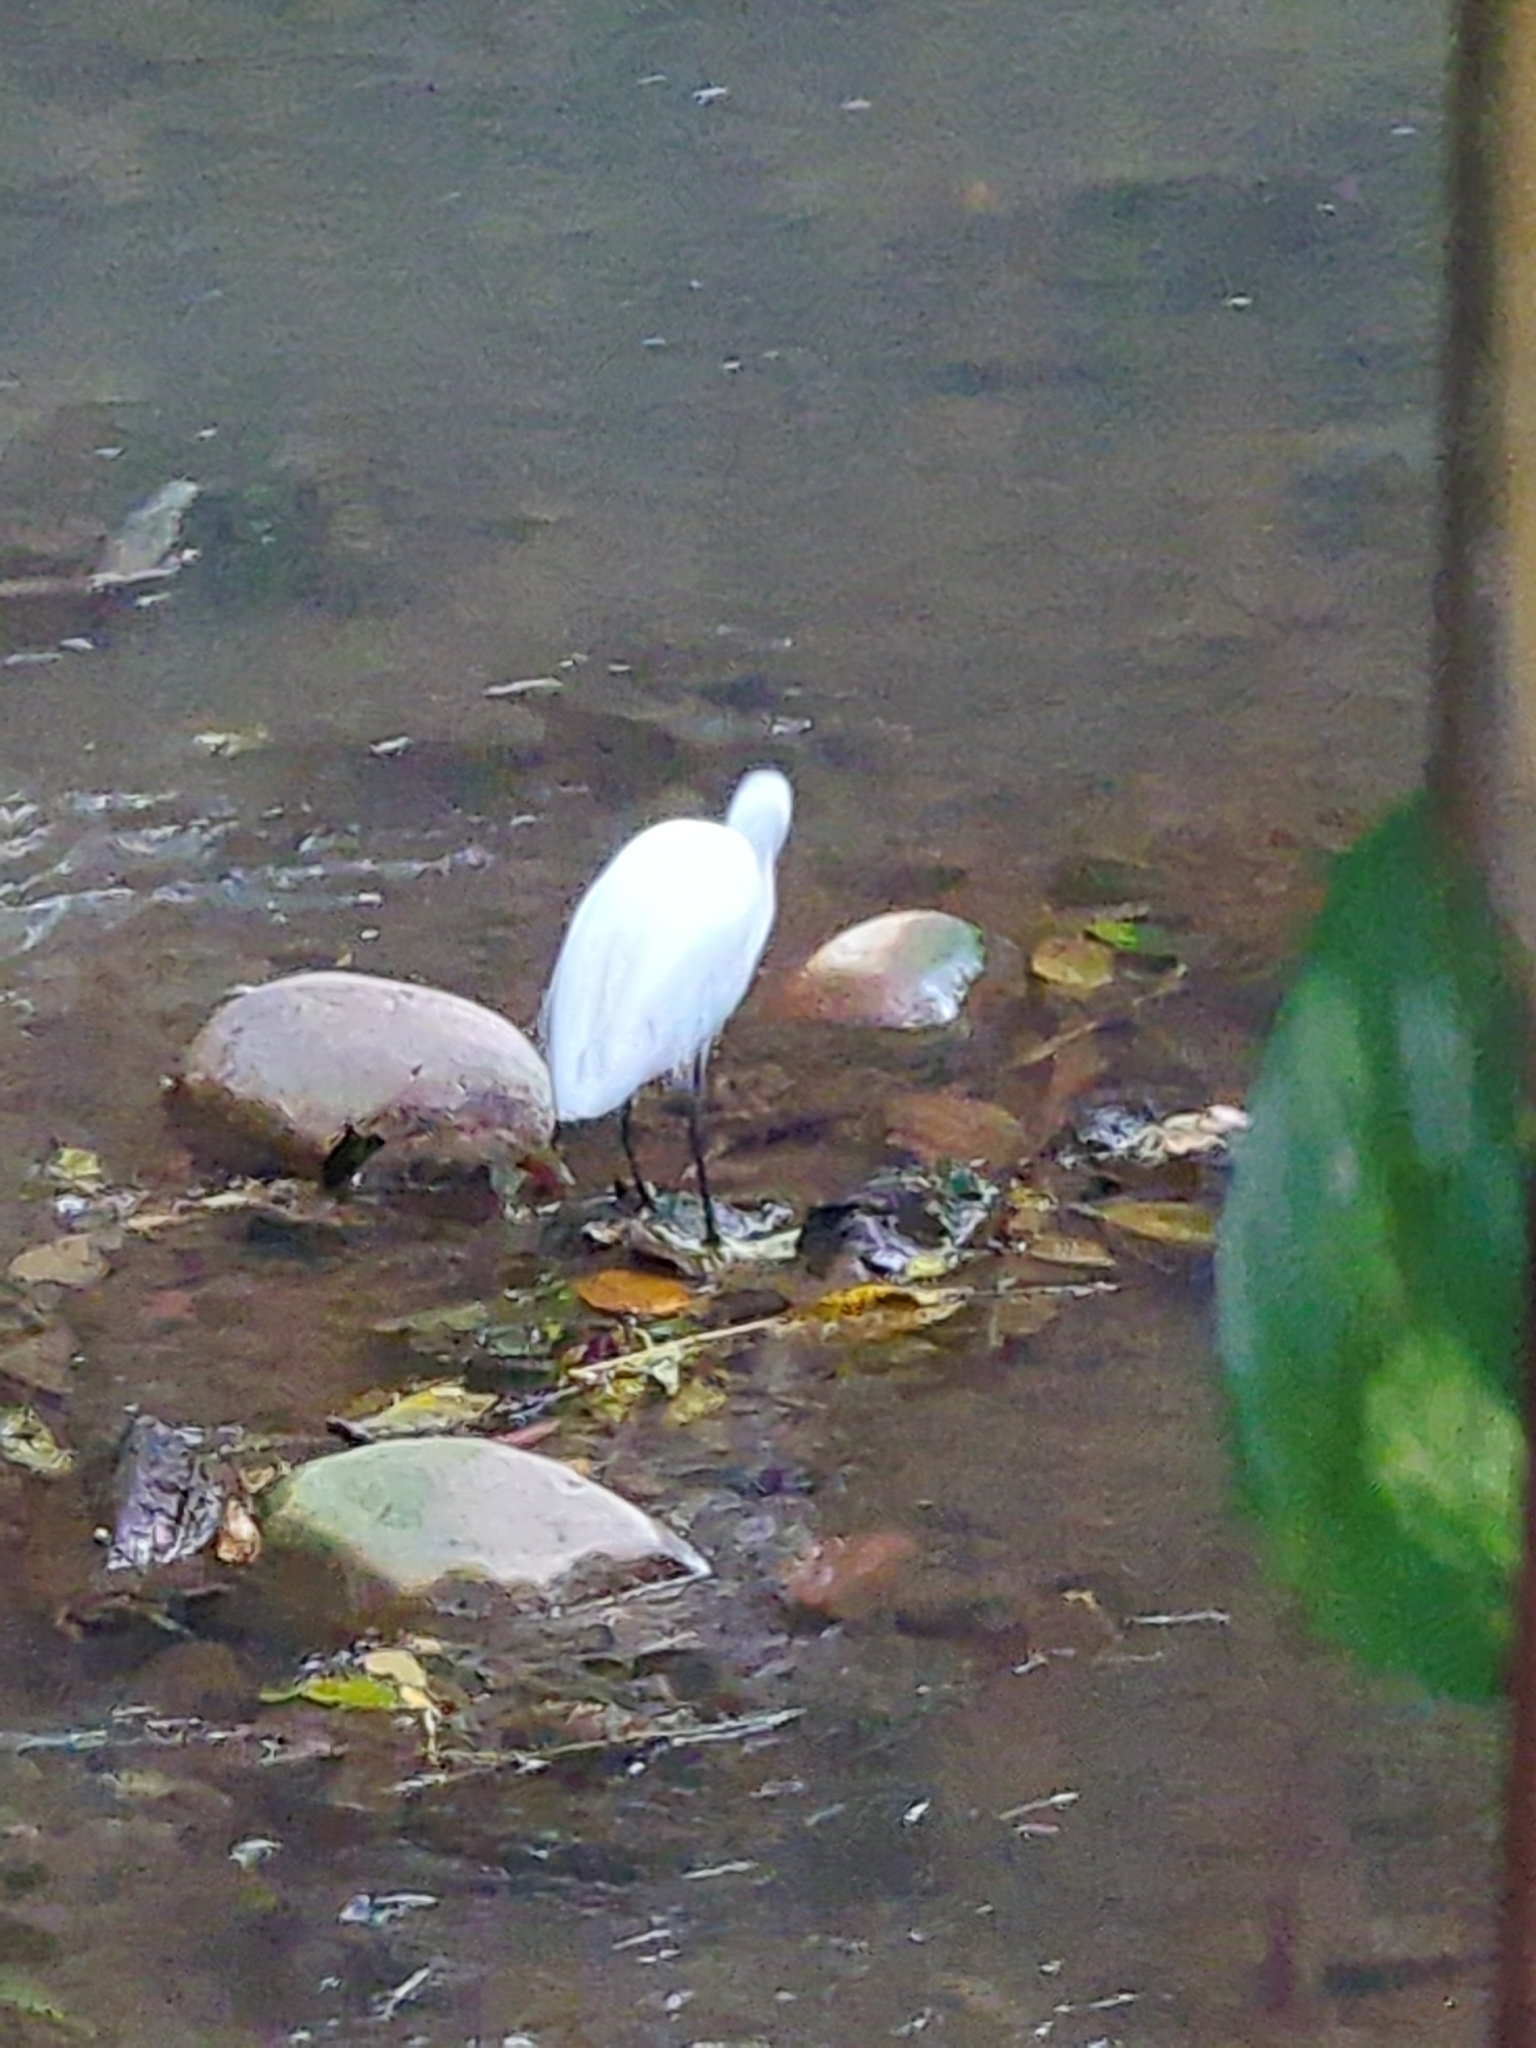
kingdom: Animalia
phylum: Chordata
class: Aves
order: Pelecaniformes
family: Ardeidae
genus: Egretta
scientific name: Egretta garzetta
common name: Little egret
